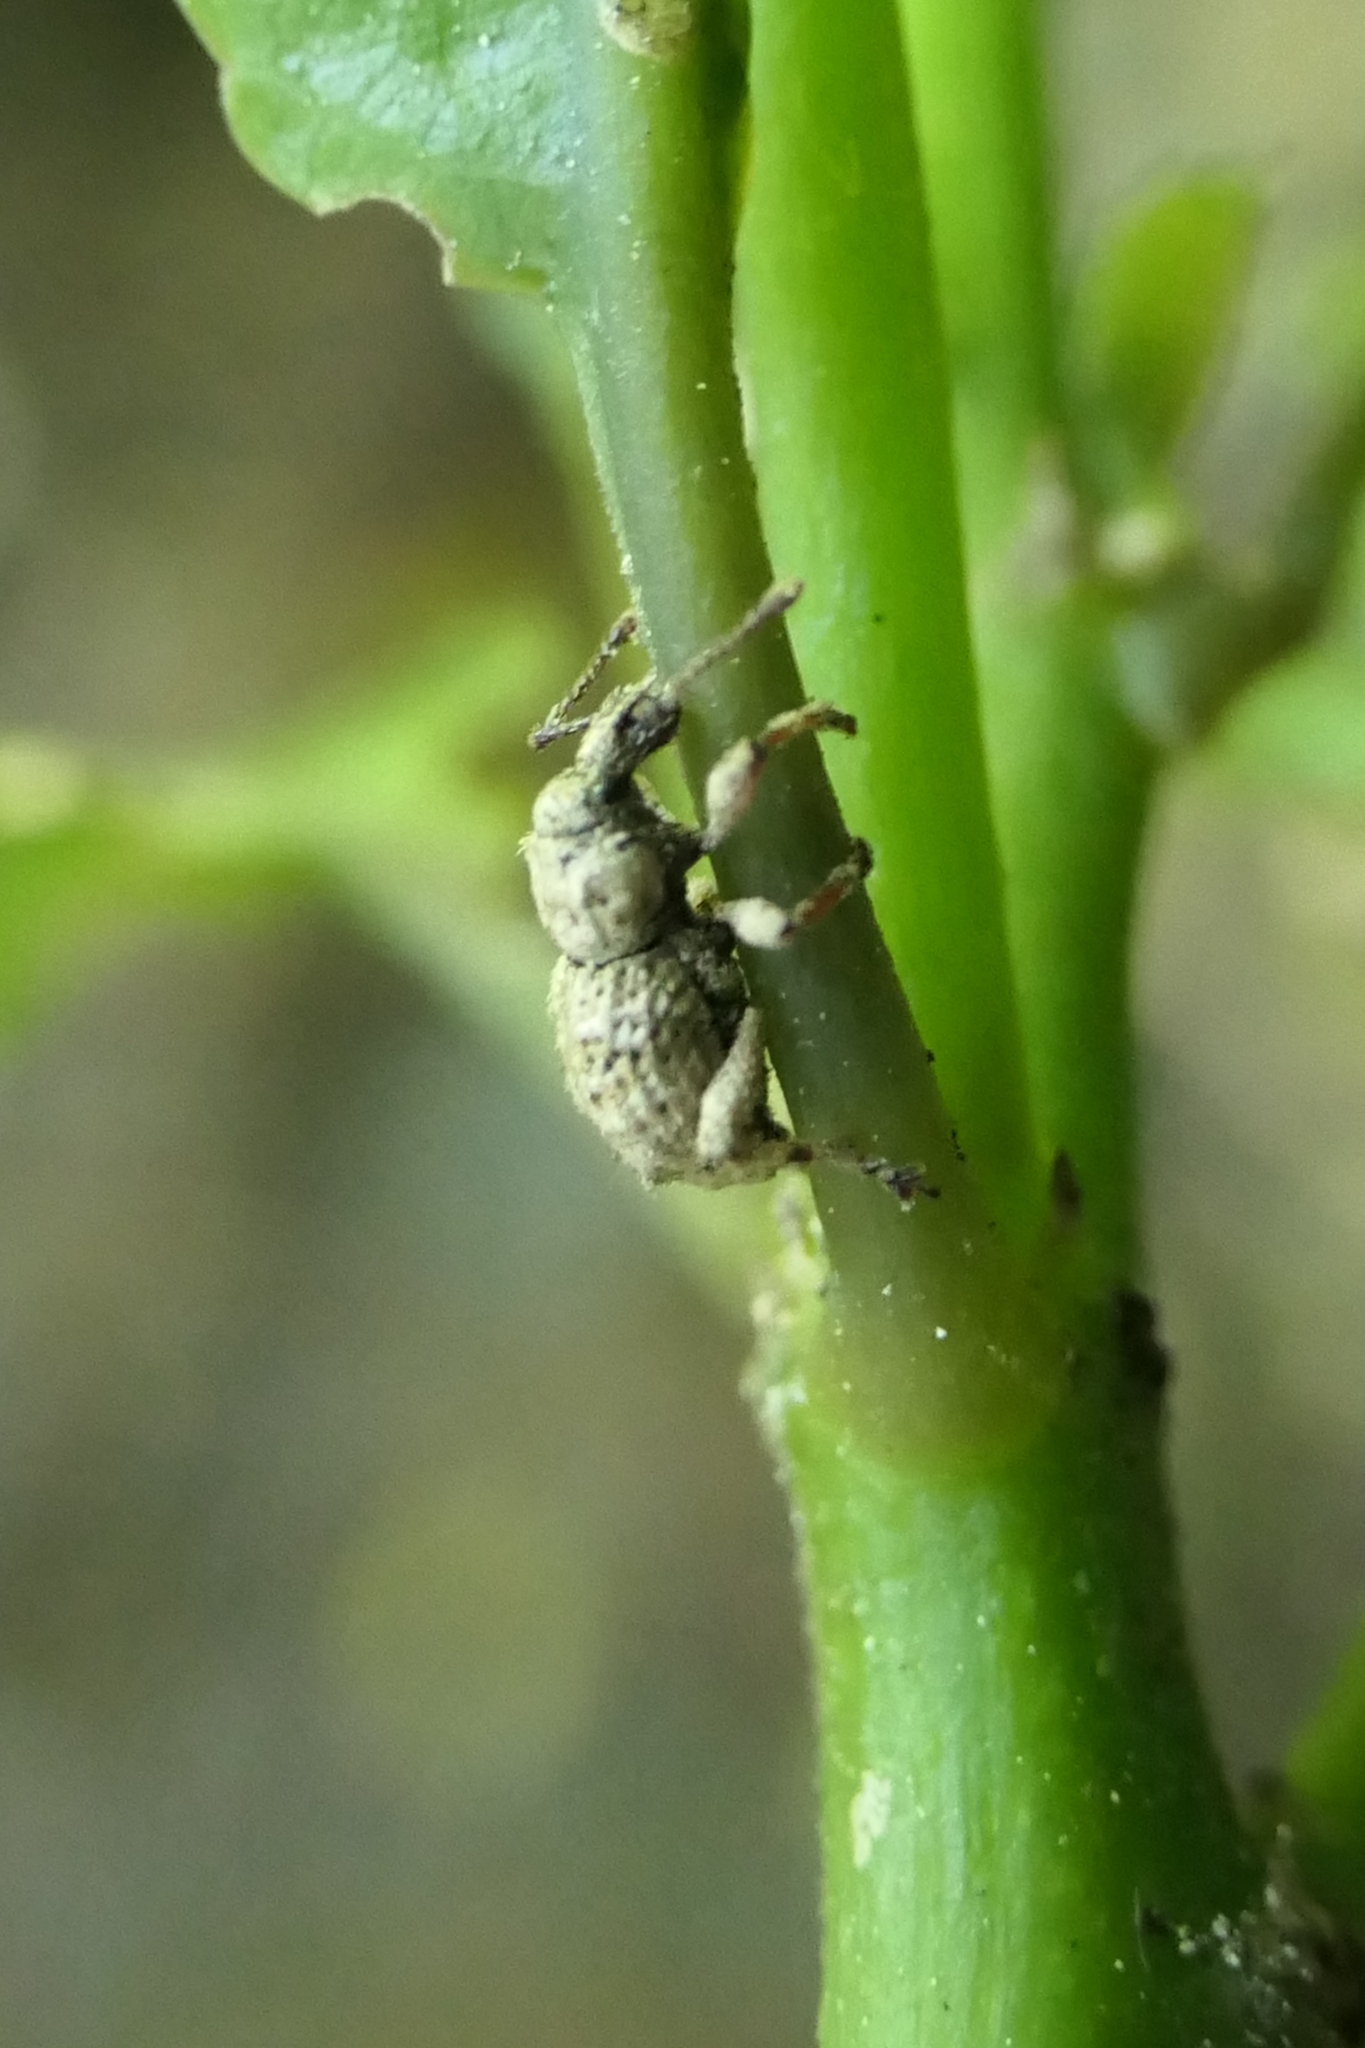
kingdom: Animalia
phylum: Arthropoda
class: Insecta
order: Coleoptera
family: Curculionidae
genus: Brachyolus
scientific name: Brachyolus punctatus
